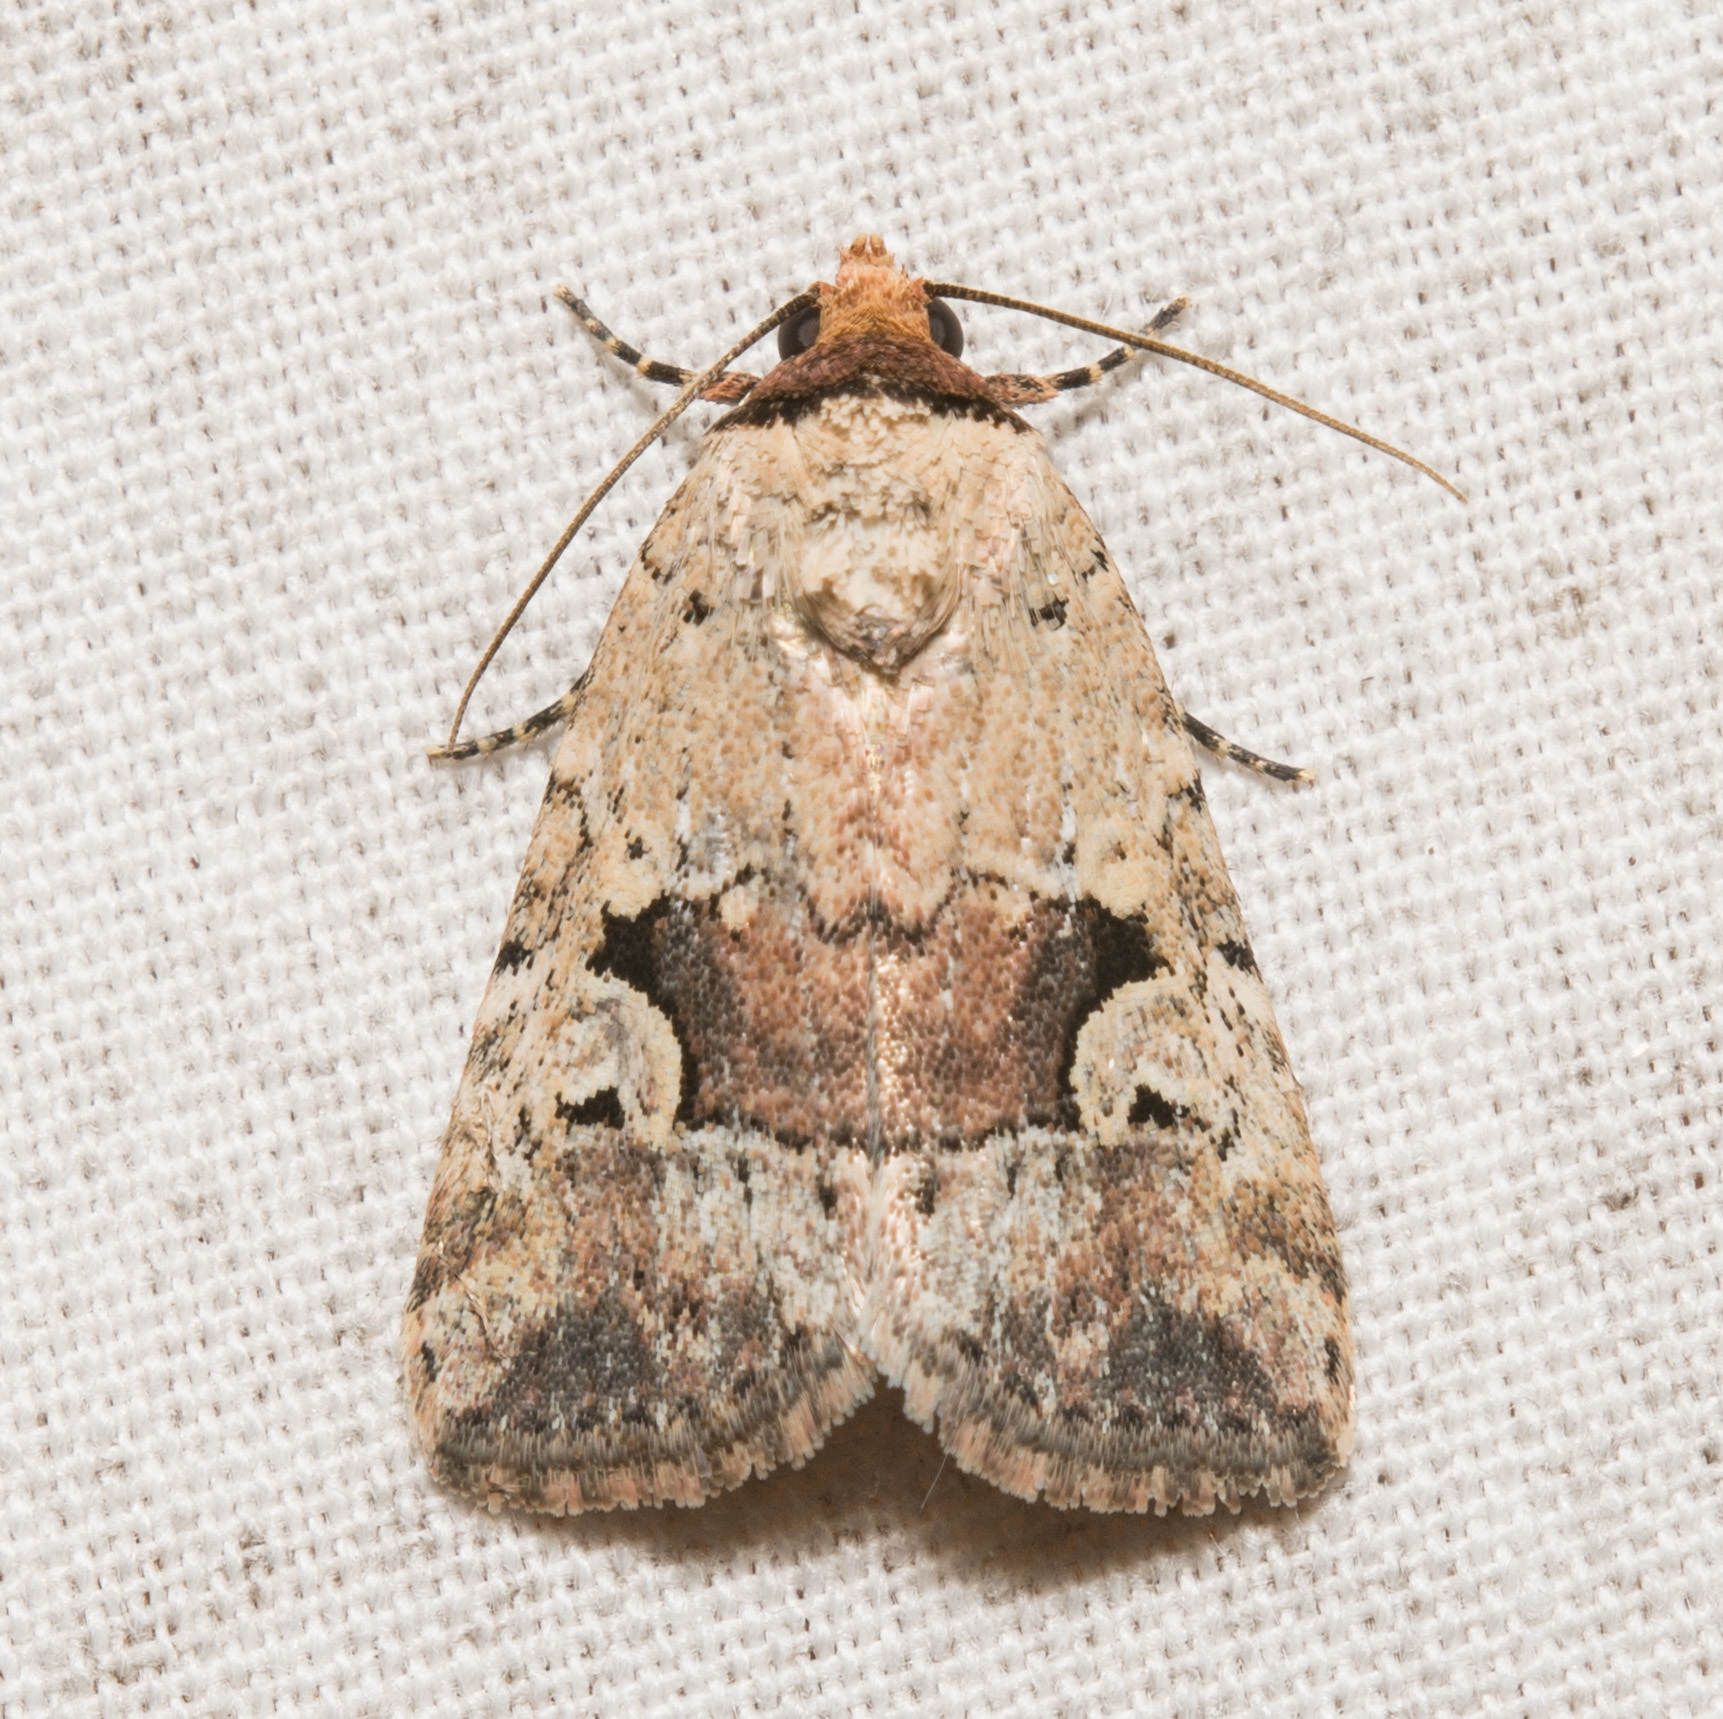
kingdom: Animalia
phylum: Arthropoda
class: Insecta
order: Lepidoptera
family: Noctuidae
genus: Elaphria
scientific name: Elaphria festivoides
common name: Festive midget
